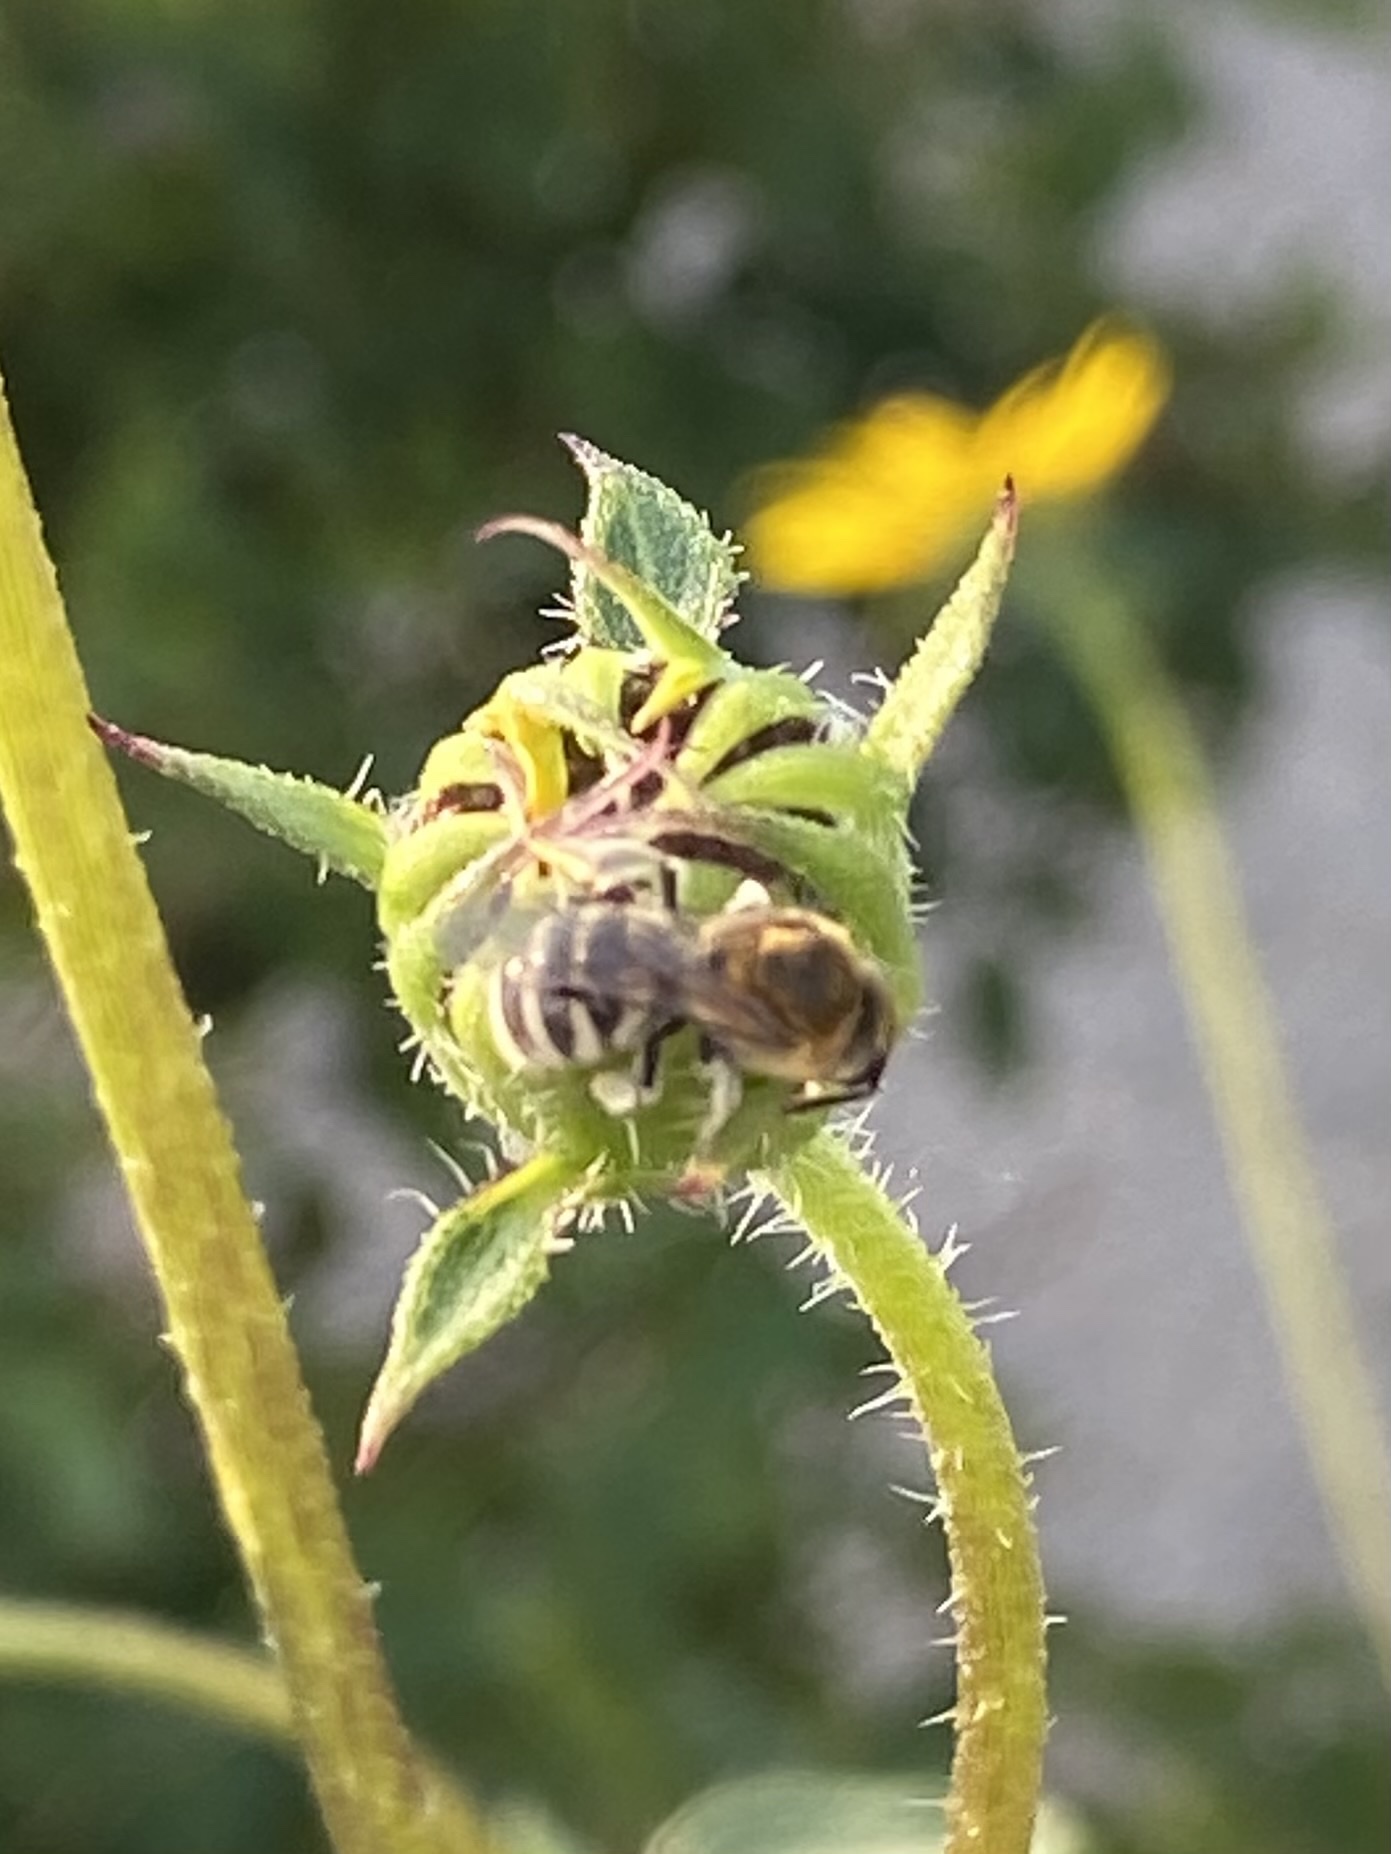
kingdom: Animalia
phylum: Arthropoda
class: Insecta
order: Hymenoptera
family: Halictidae
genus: Lasioglossum
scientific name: Lasioglossum sisymbrii
